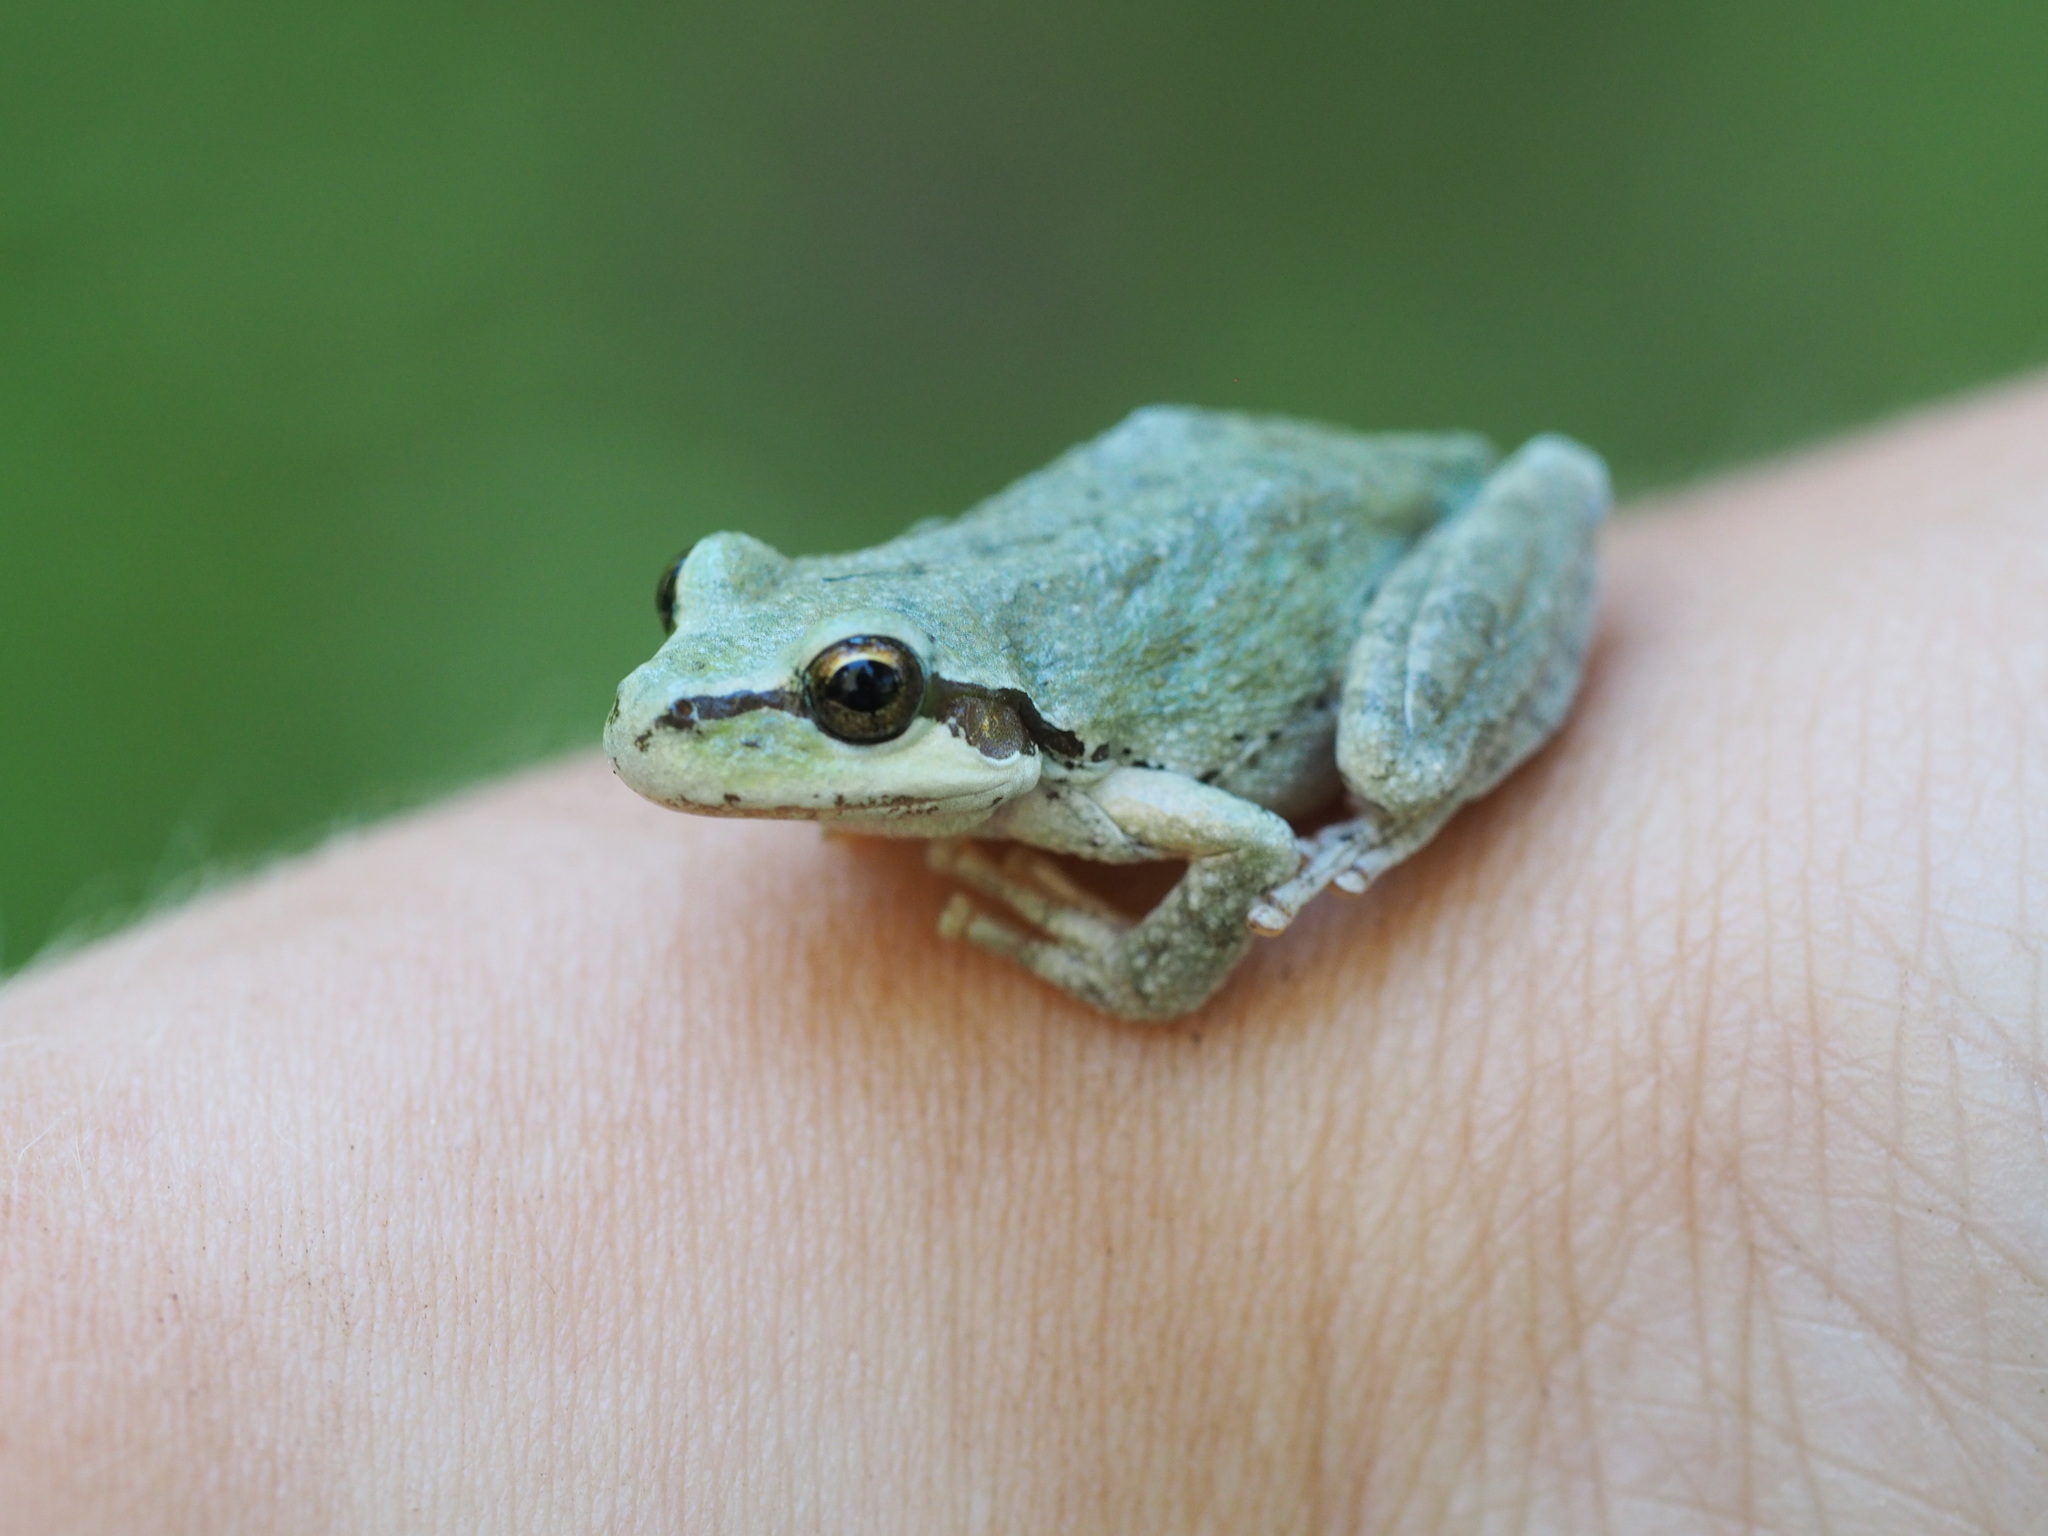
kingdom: Animalia
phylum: Chordata
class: Amphibia
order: Anura
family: Hylidae
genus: Pseudacris
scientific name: Pseudacris regilla
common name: Pacific chorus frog
